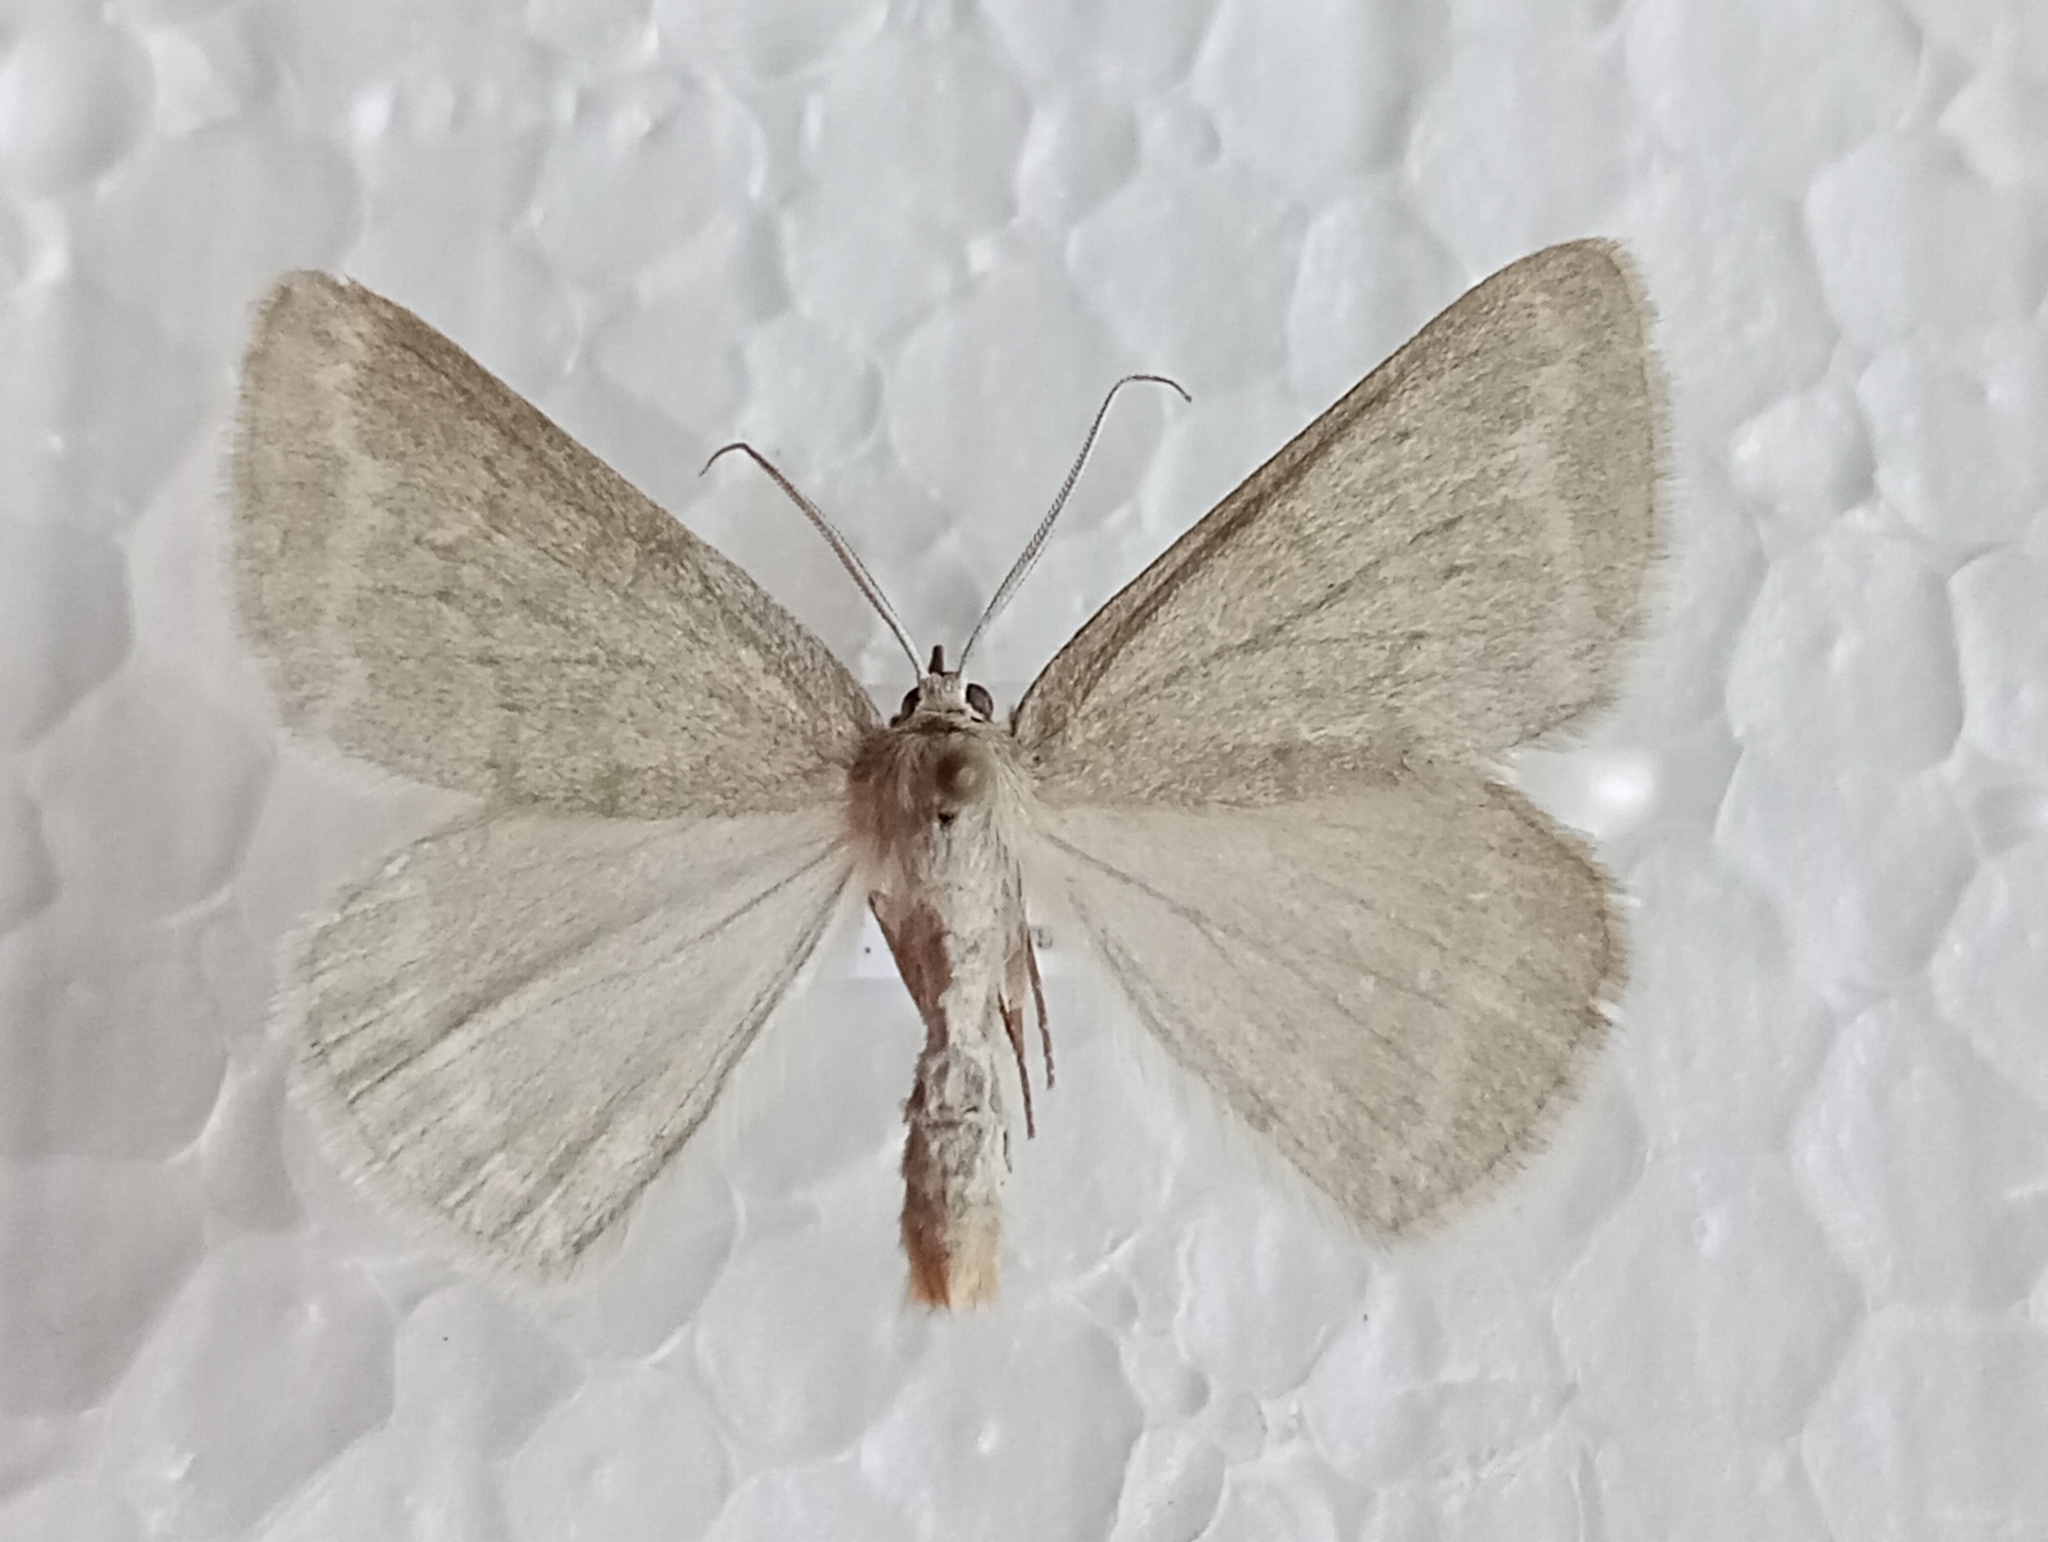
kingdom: Animalia
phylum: Arthropoda
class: Insecta
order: Lepidoptera
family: Geometridae
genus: Pseudoterpna
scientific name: Pseudoterpna pruinata
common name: Grass emerald
